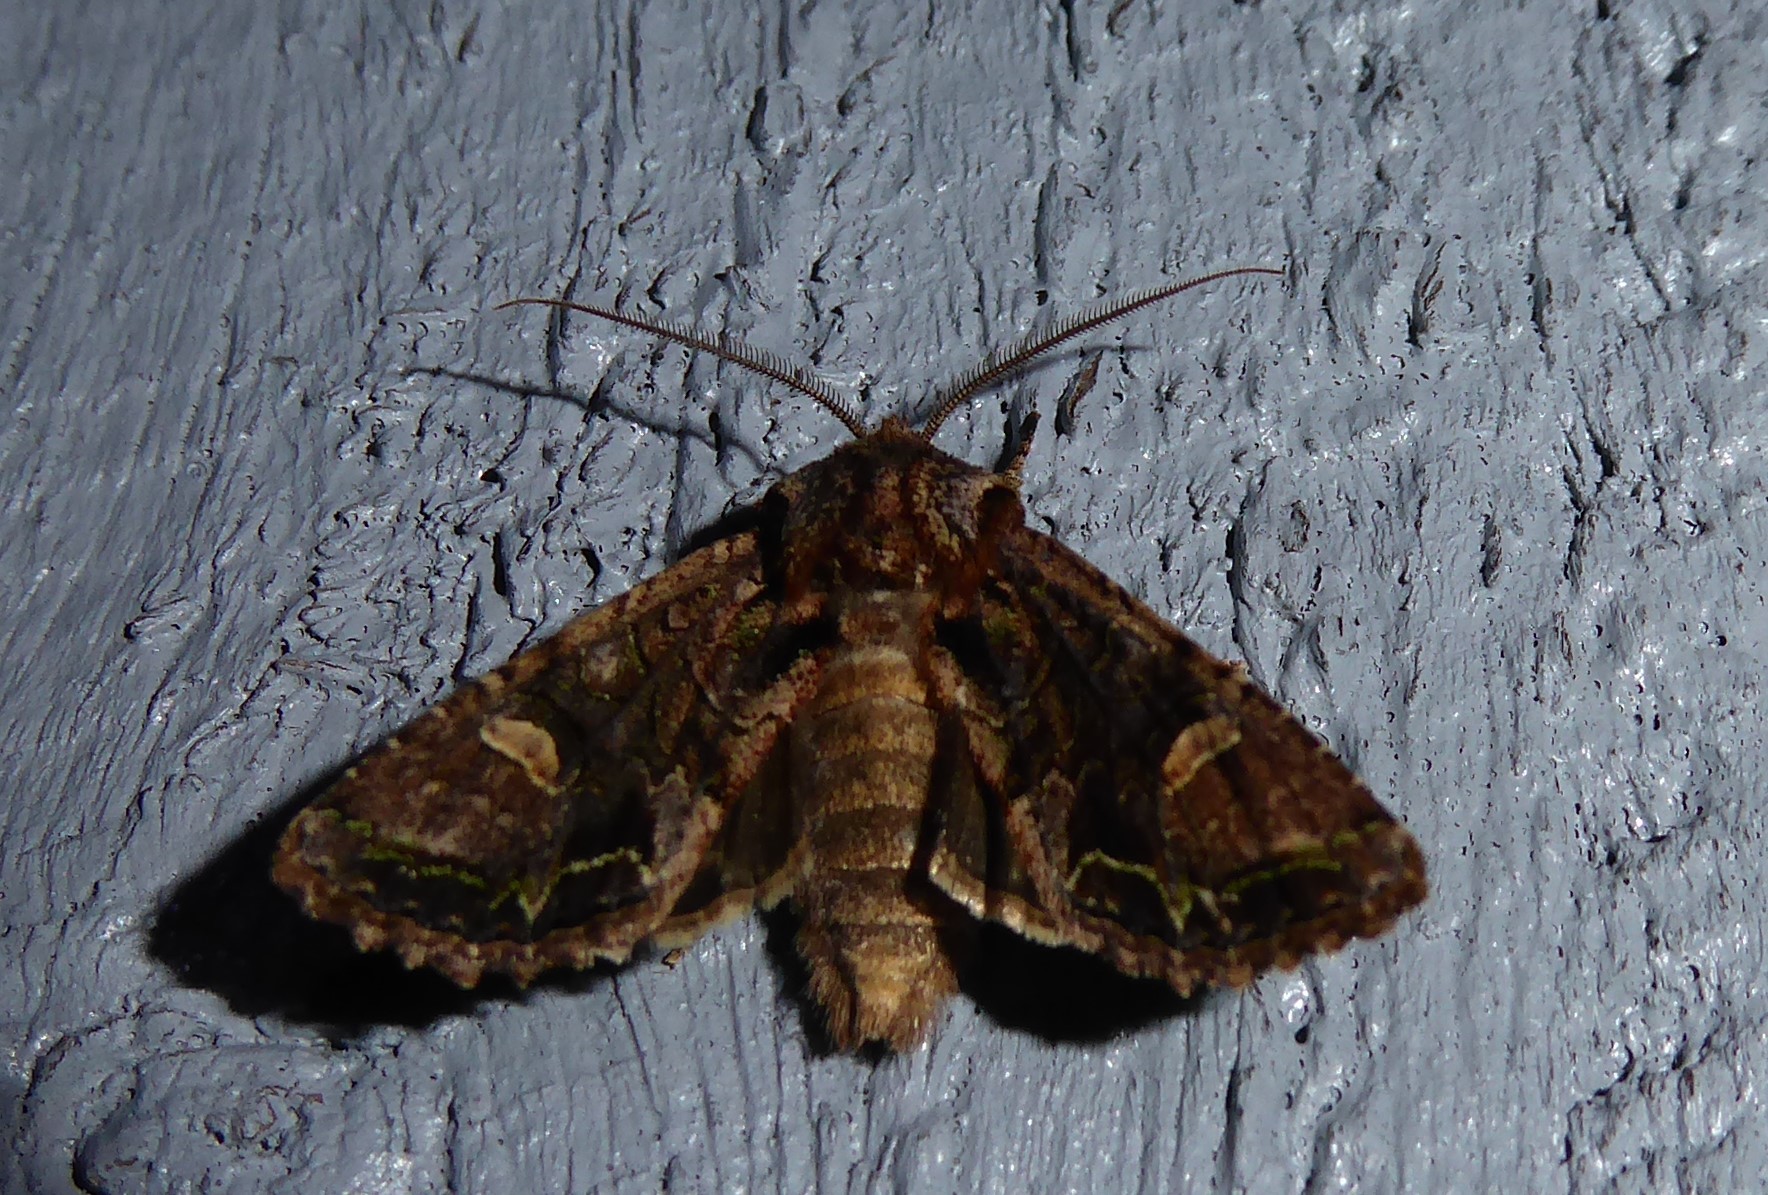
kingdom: Animalia
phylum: Arthropoda
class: Insecta
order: Lepidoptera
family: Noctuidae
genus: Ichneutica
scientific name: Ichneutica insignis
